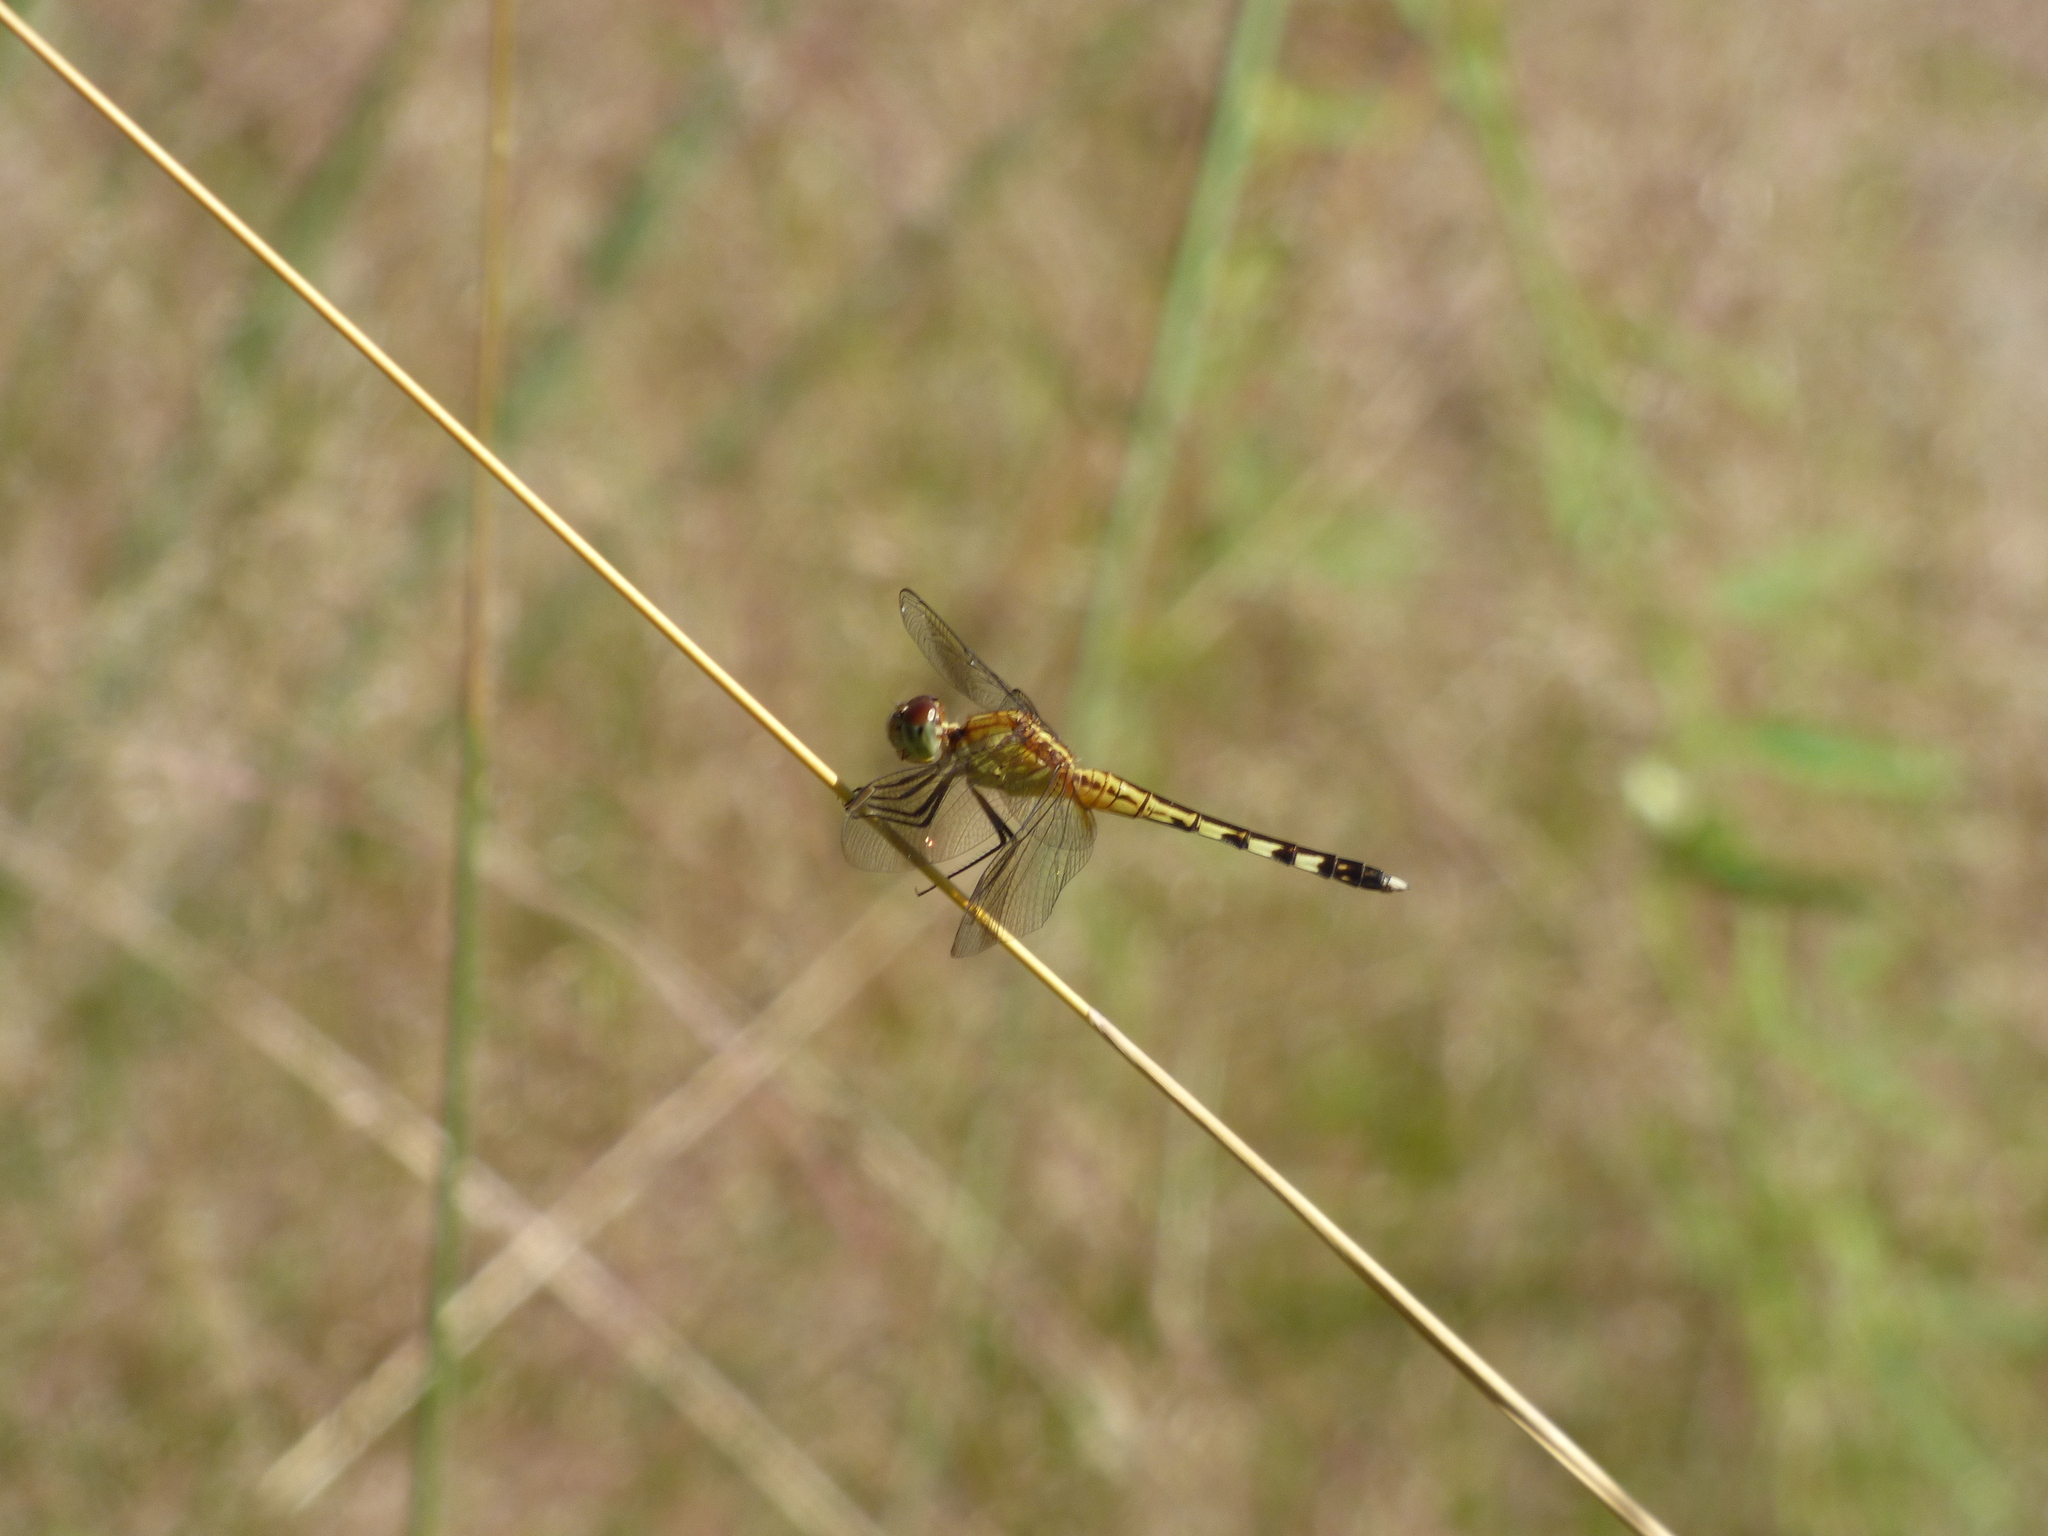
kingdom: Animalia
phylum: Arthropoda
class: Insecta
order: Odonata
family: Libellulidae
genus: Erythrodiplax
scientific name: Erythrodiplax umbrata
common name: Band-winged dragonlet
